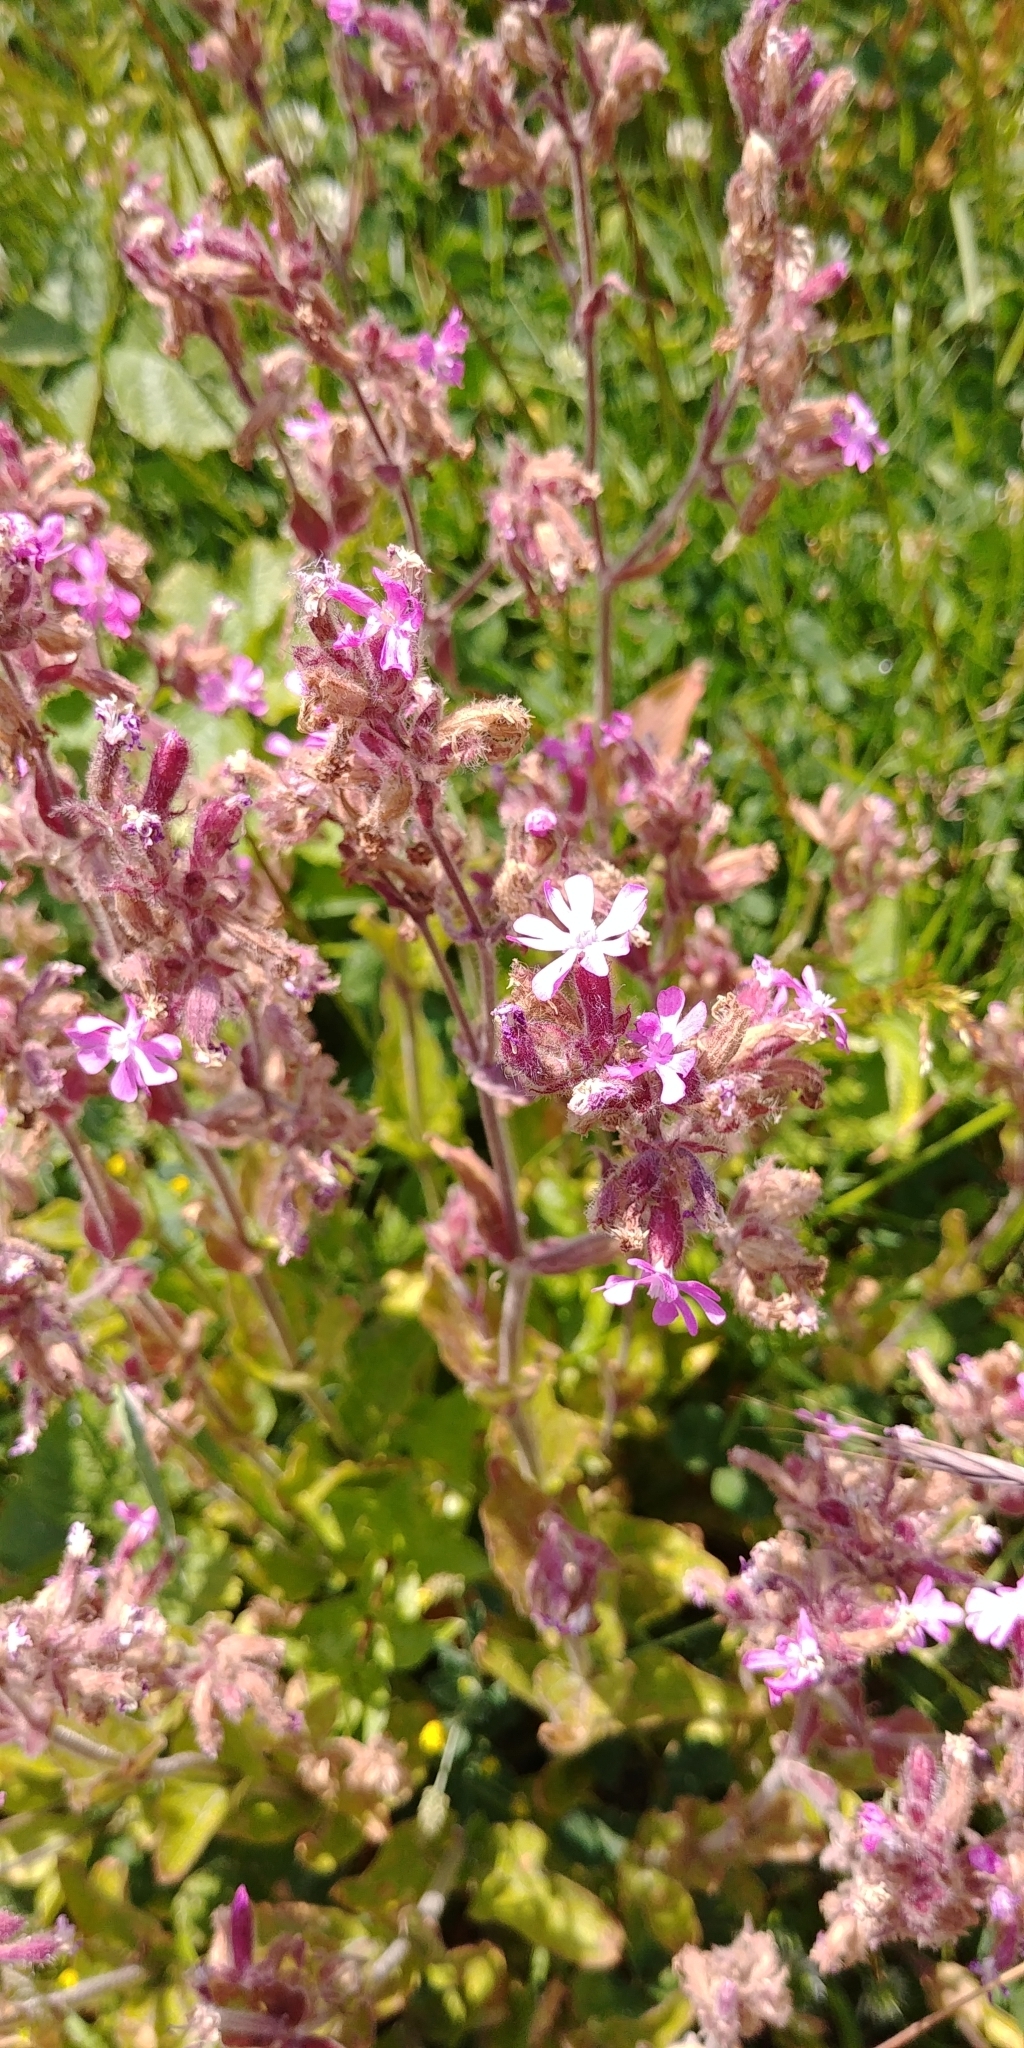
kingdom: Plantae
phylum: Tracheophyta
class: Magnoliopsida
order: Caryophyllales
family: Caryophyllaceae
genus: Silene
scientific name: Silene dioica
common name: Red campion
